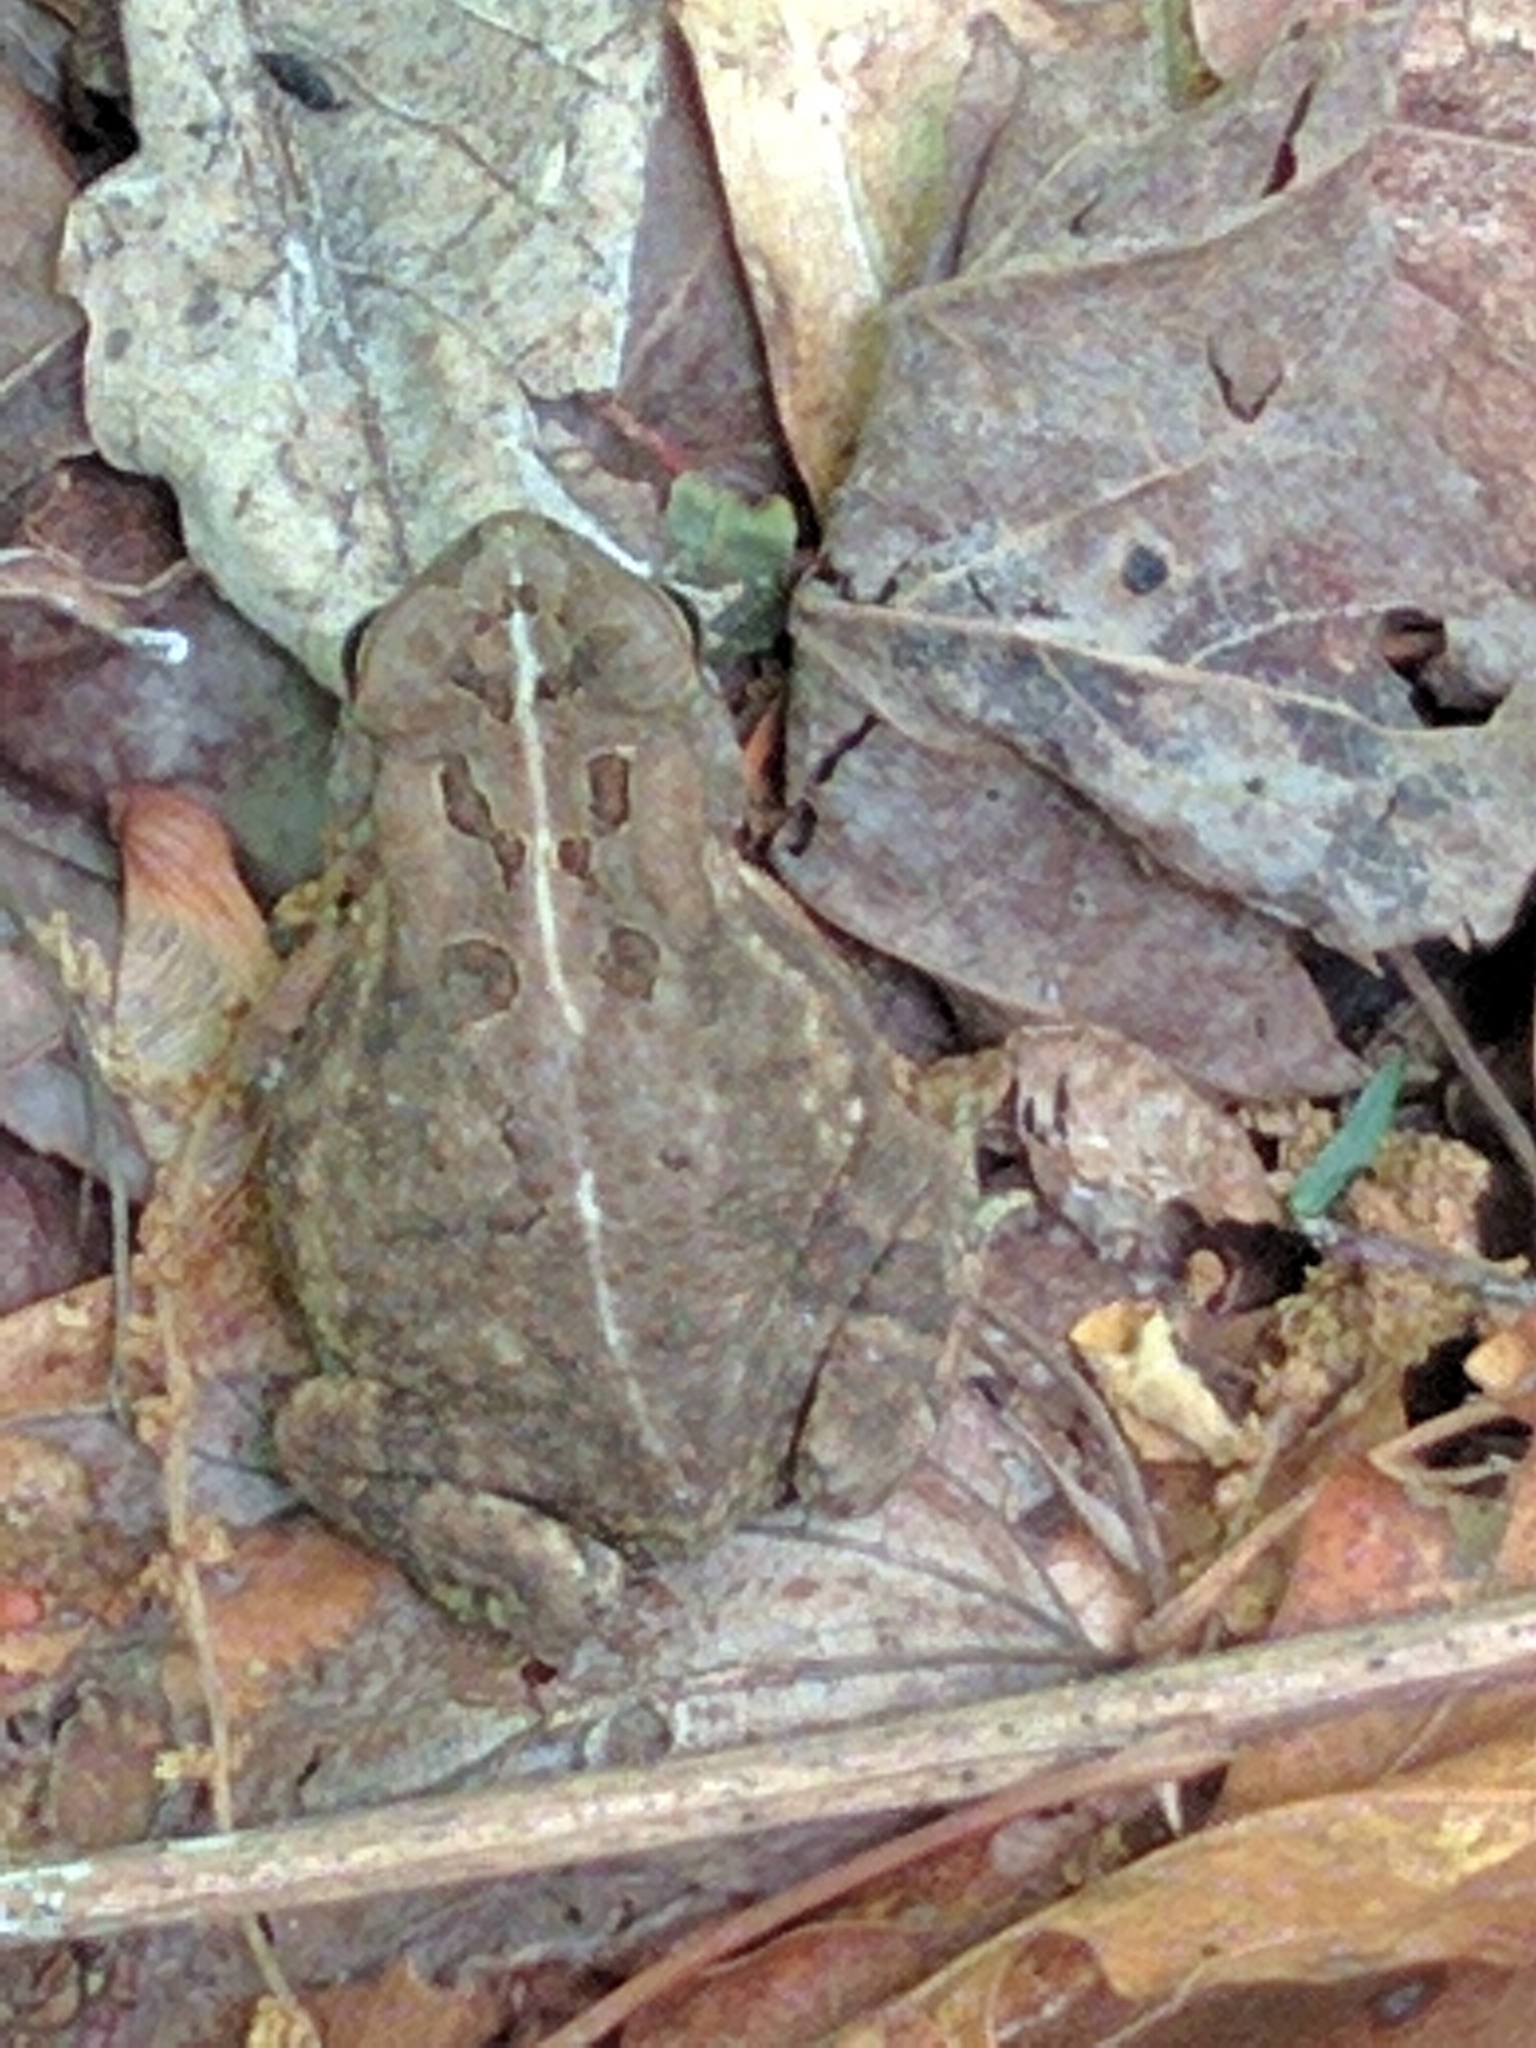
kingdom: Animalia
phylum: Chordata
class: Amphibia
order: Anura
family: Bufonidae
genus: Anaxyrus
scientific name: Anaxyrus fowleri
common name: Fowler's toad
